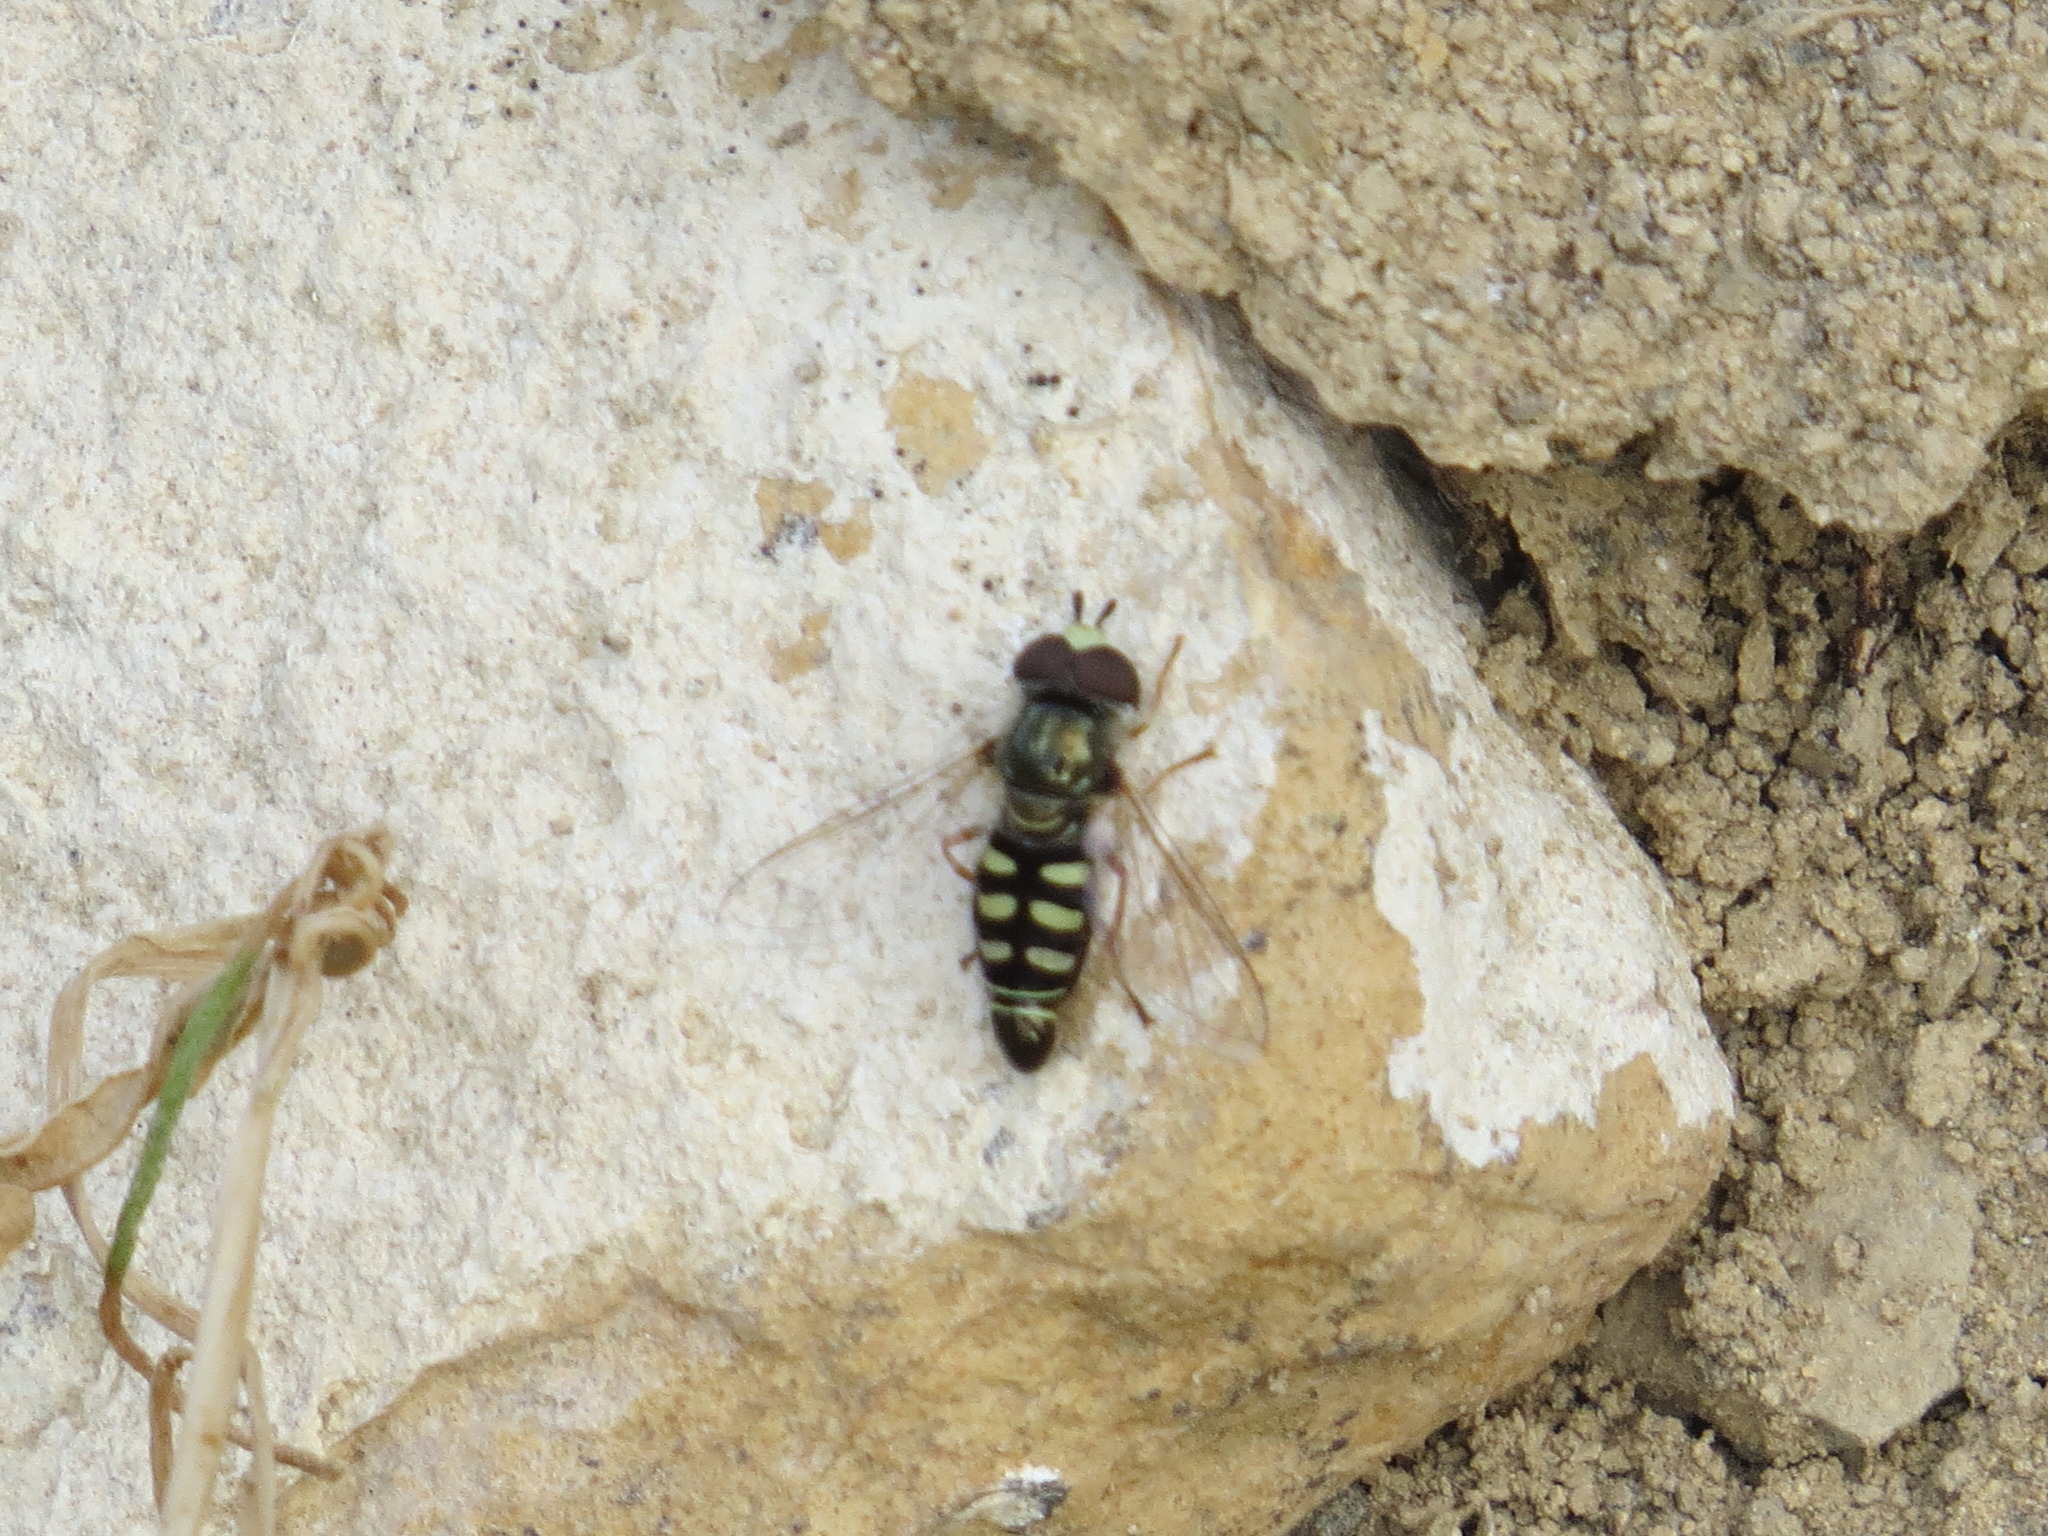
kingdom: Animalia
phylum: Arthropoda
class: Insecta
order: Diptera
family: Syrphidae
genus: Eupeodes
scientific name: Eupeodes volucris
